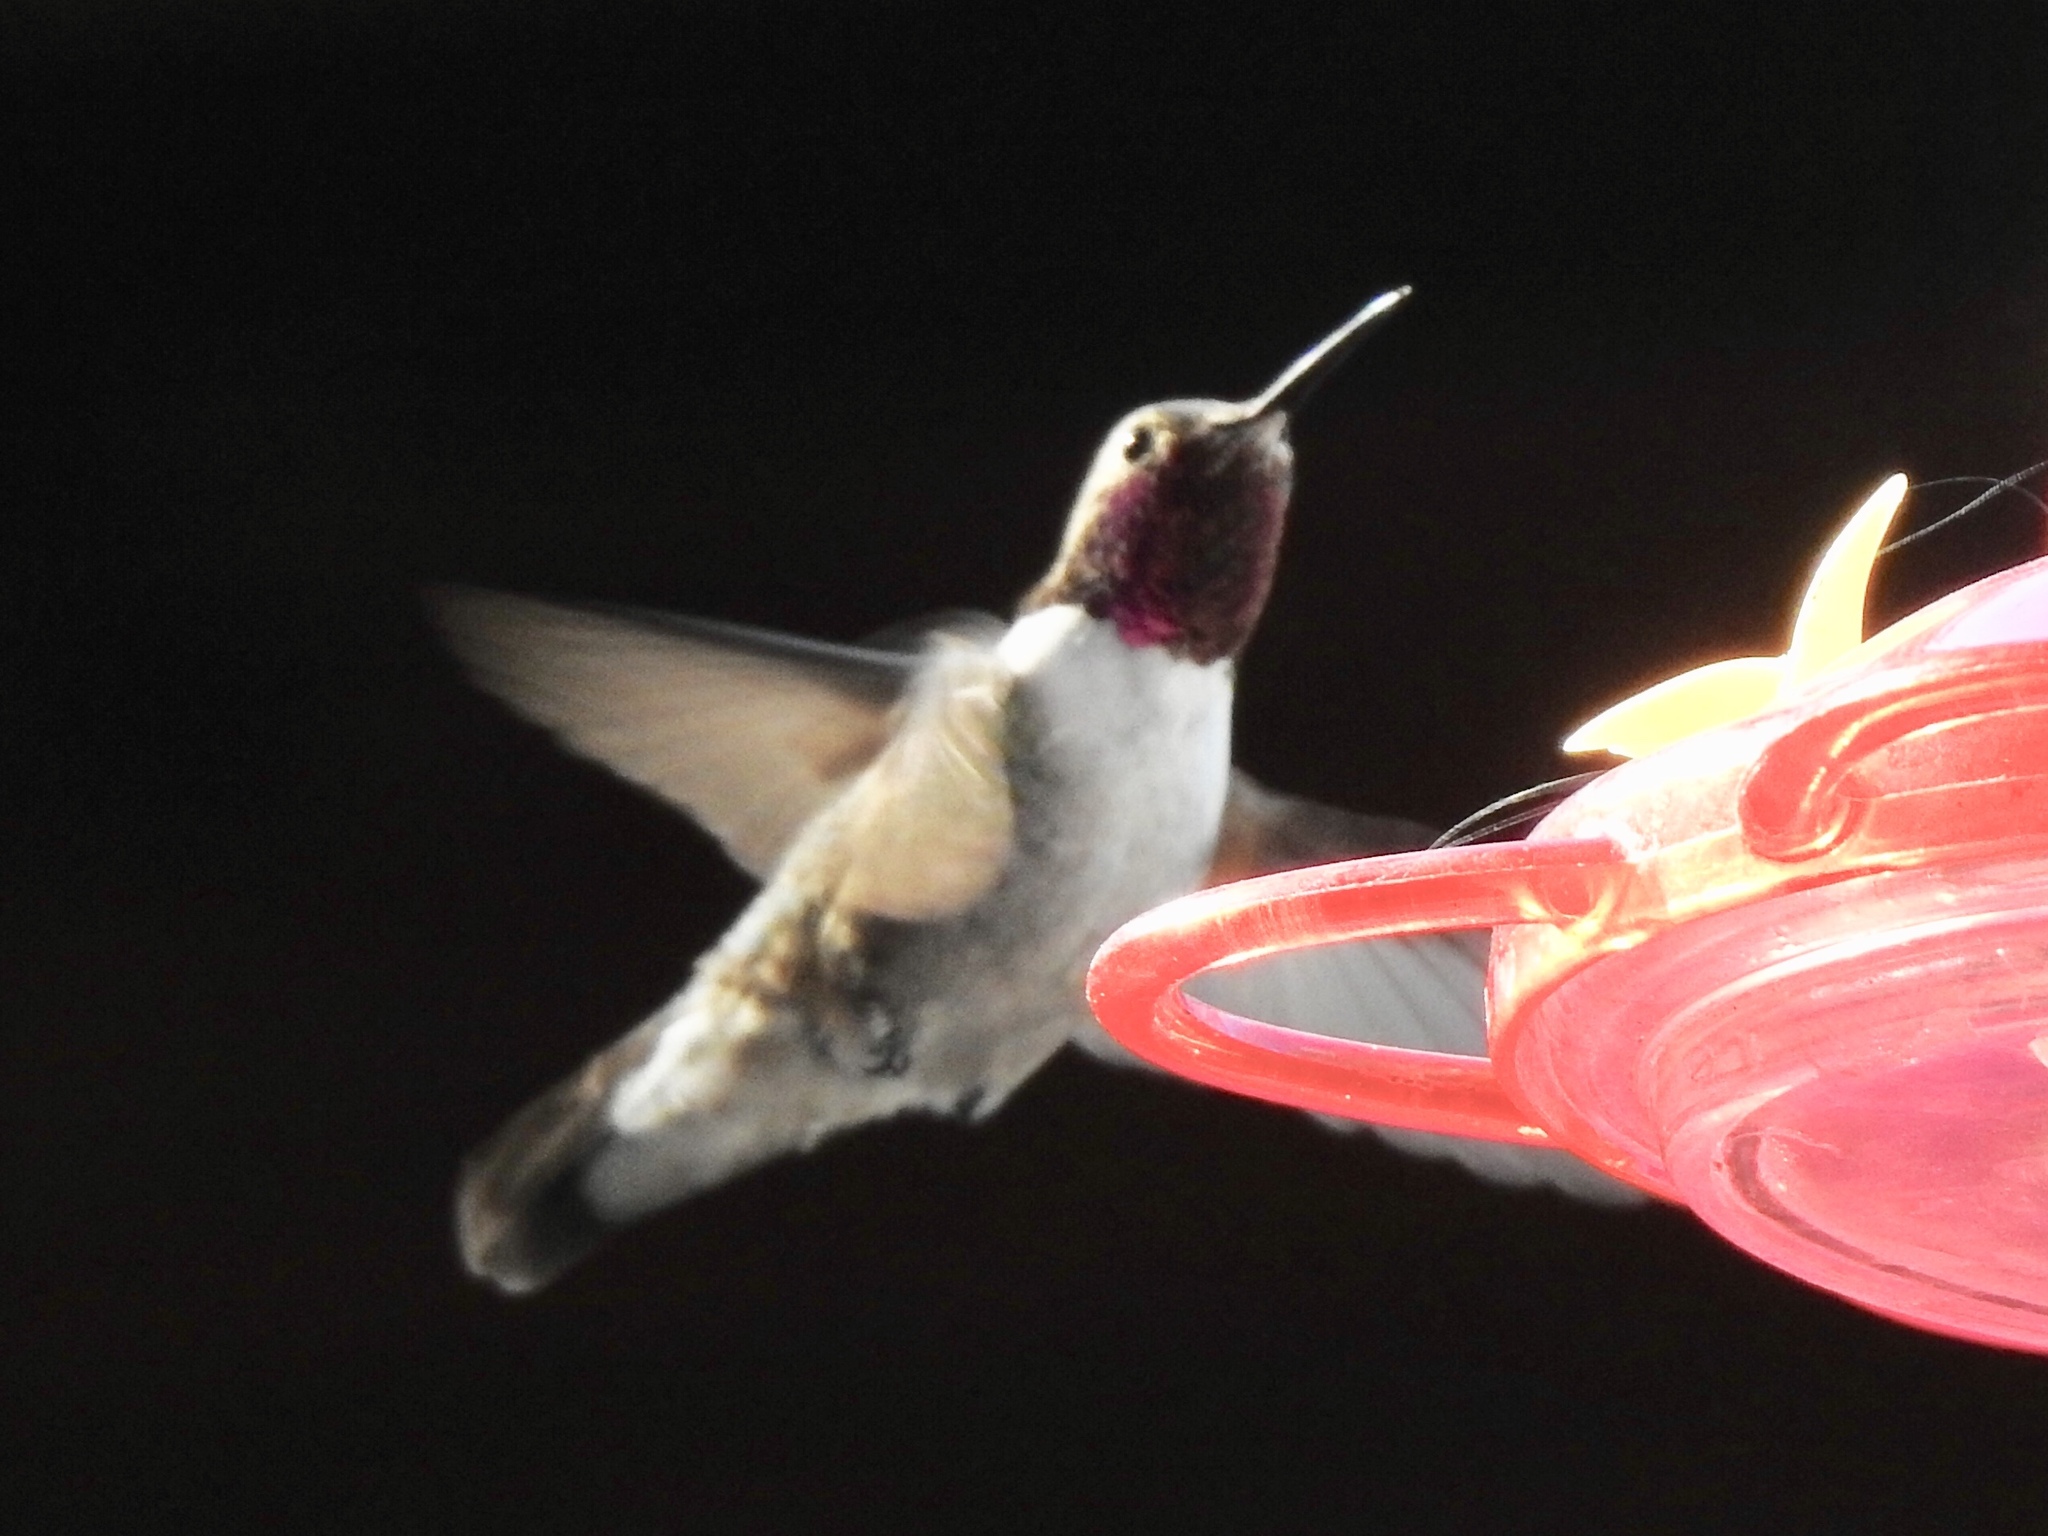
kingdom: Animalia
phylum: Chordata
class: Aves
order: Apodiformes
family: Trochilidae
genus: Selasphorus
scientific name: Selasphorus platycercus
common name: Broad-tailed hummingbird
